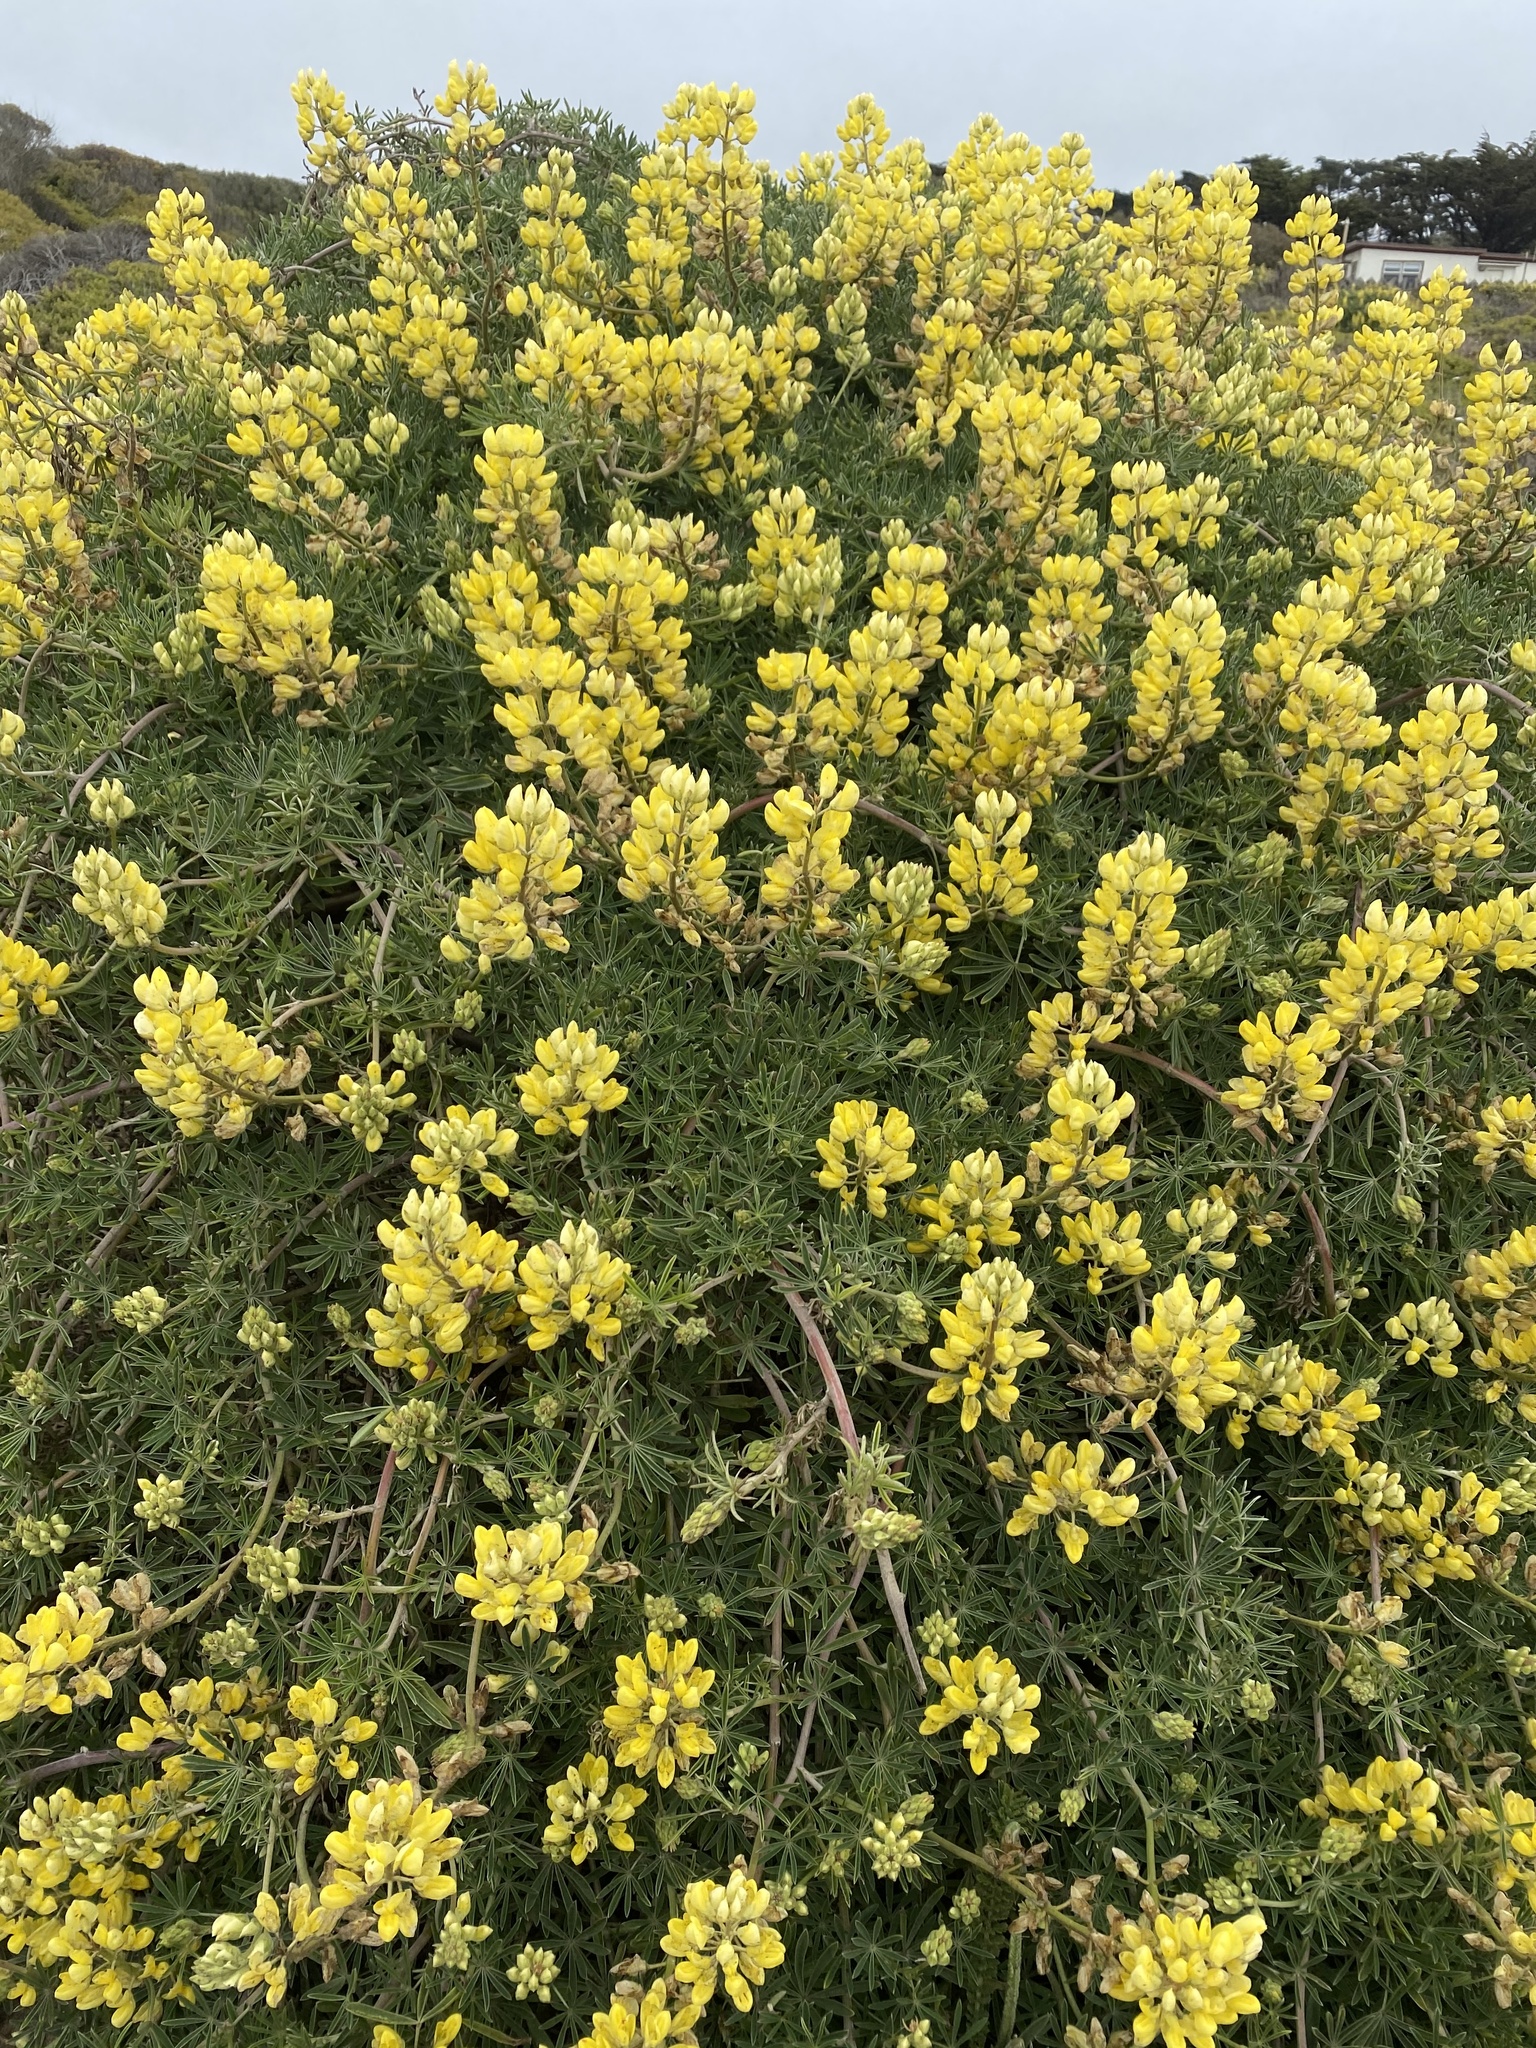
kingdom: Plantae
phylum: Tracheophyta
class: Magnoliopsida
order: Fabales
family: Fabaceae
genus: Lupinus
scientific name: Lupinus arboreus
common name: Yellow bush lupine
